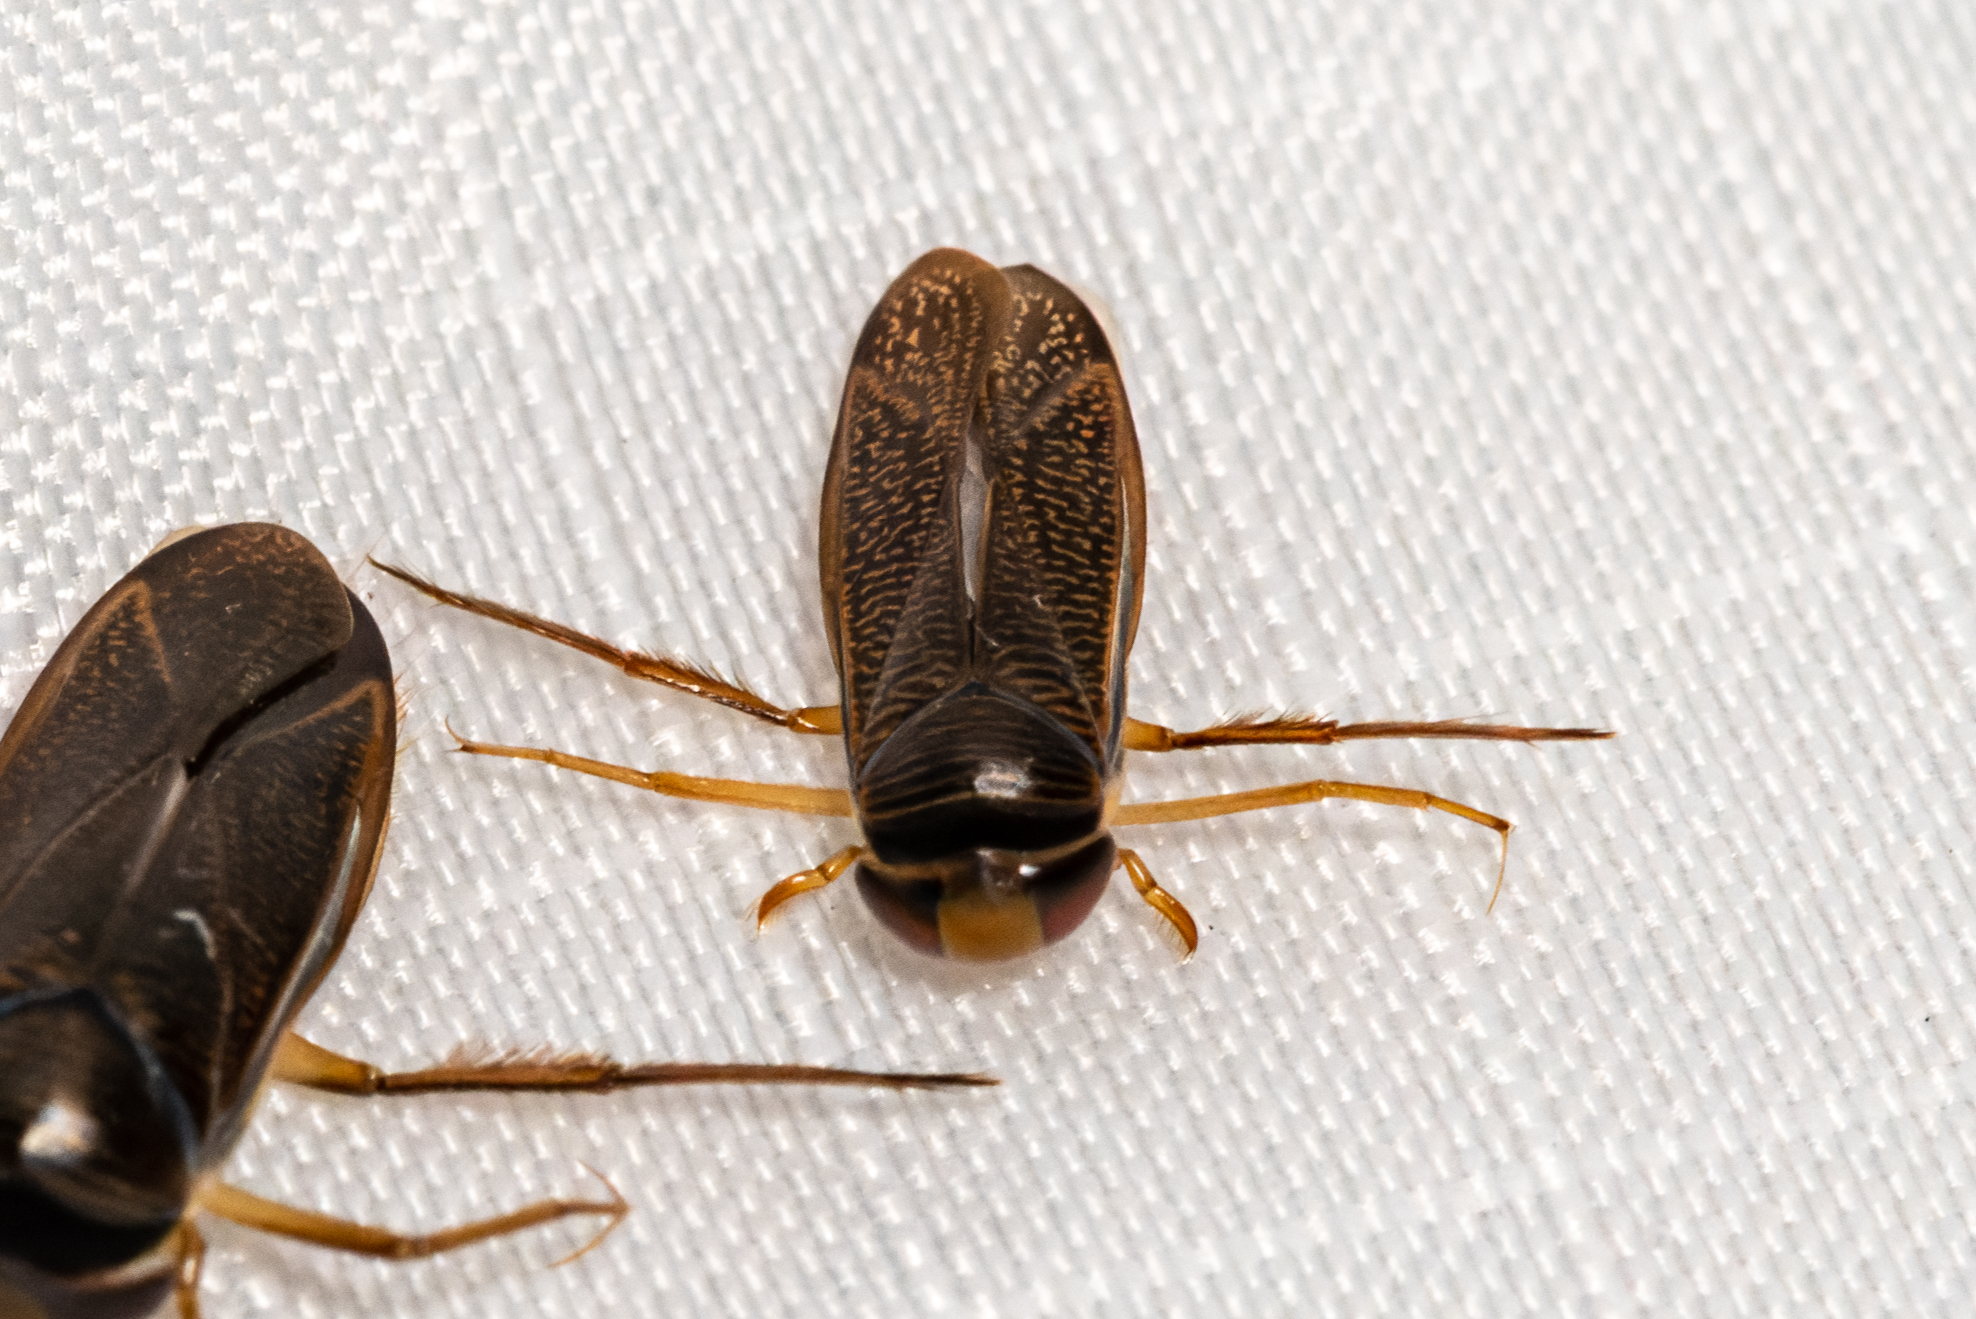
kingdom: Animalia
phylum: Arthropoda
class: Insecta
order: Hemiptera
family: Corixidae
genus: Hesperocorixa
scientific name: Hesperocorixa
